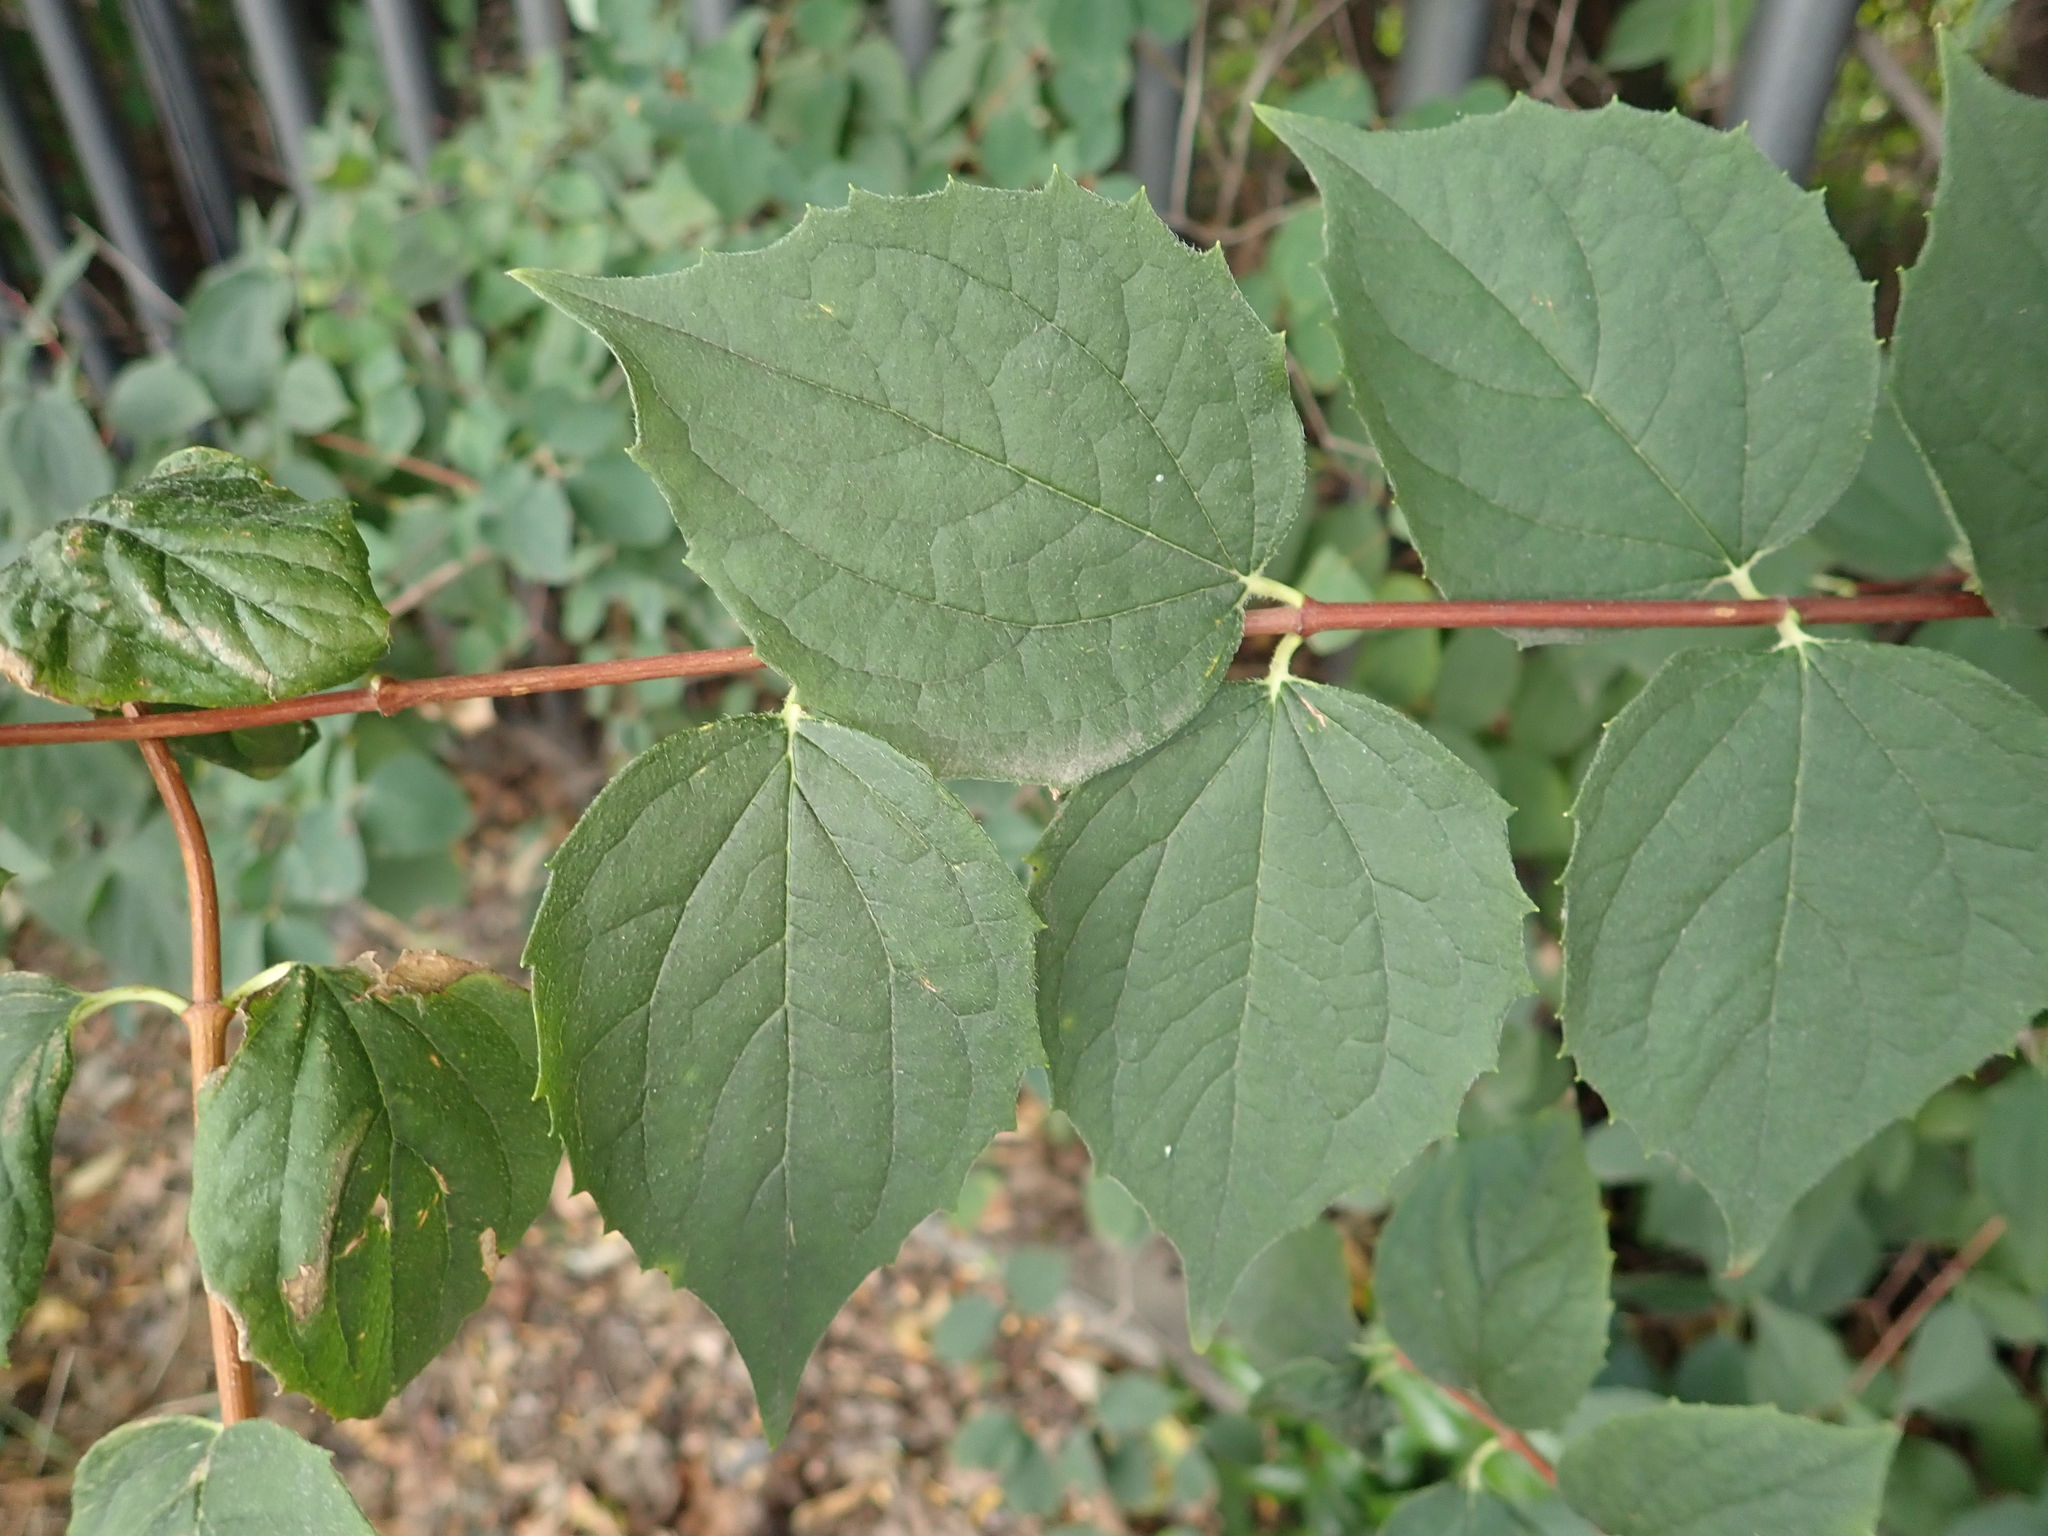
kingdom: Plantae
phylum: Tracheophyta
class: Magnoliopsida
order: Cornales
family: Hydrangeaceae
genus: Philadelphus
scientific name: Philadelphus coronarius
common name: Mock orange
